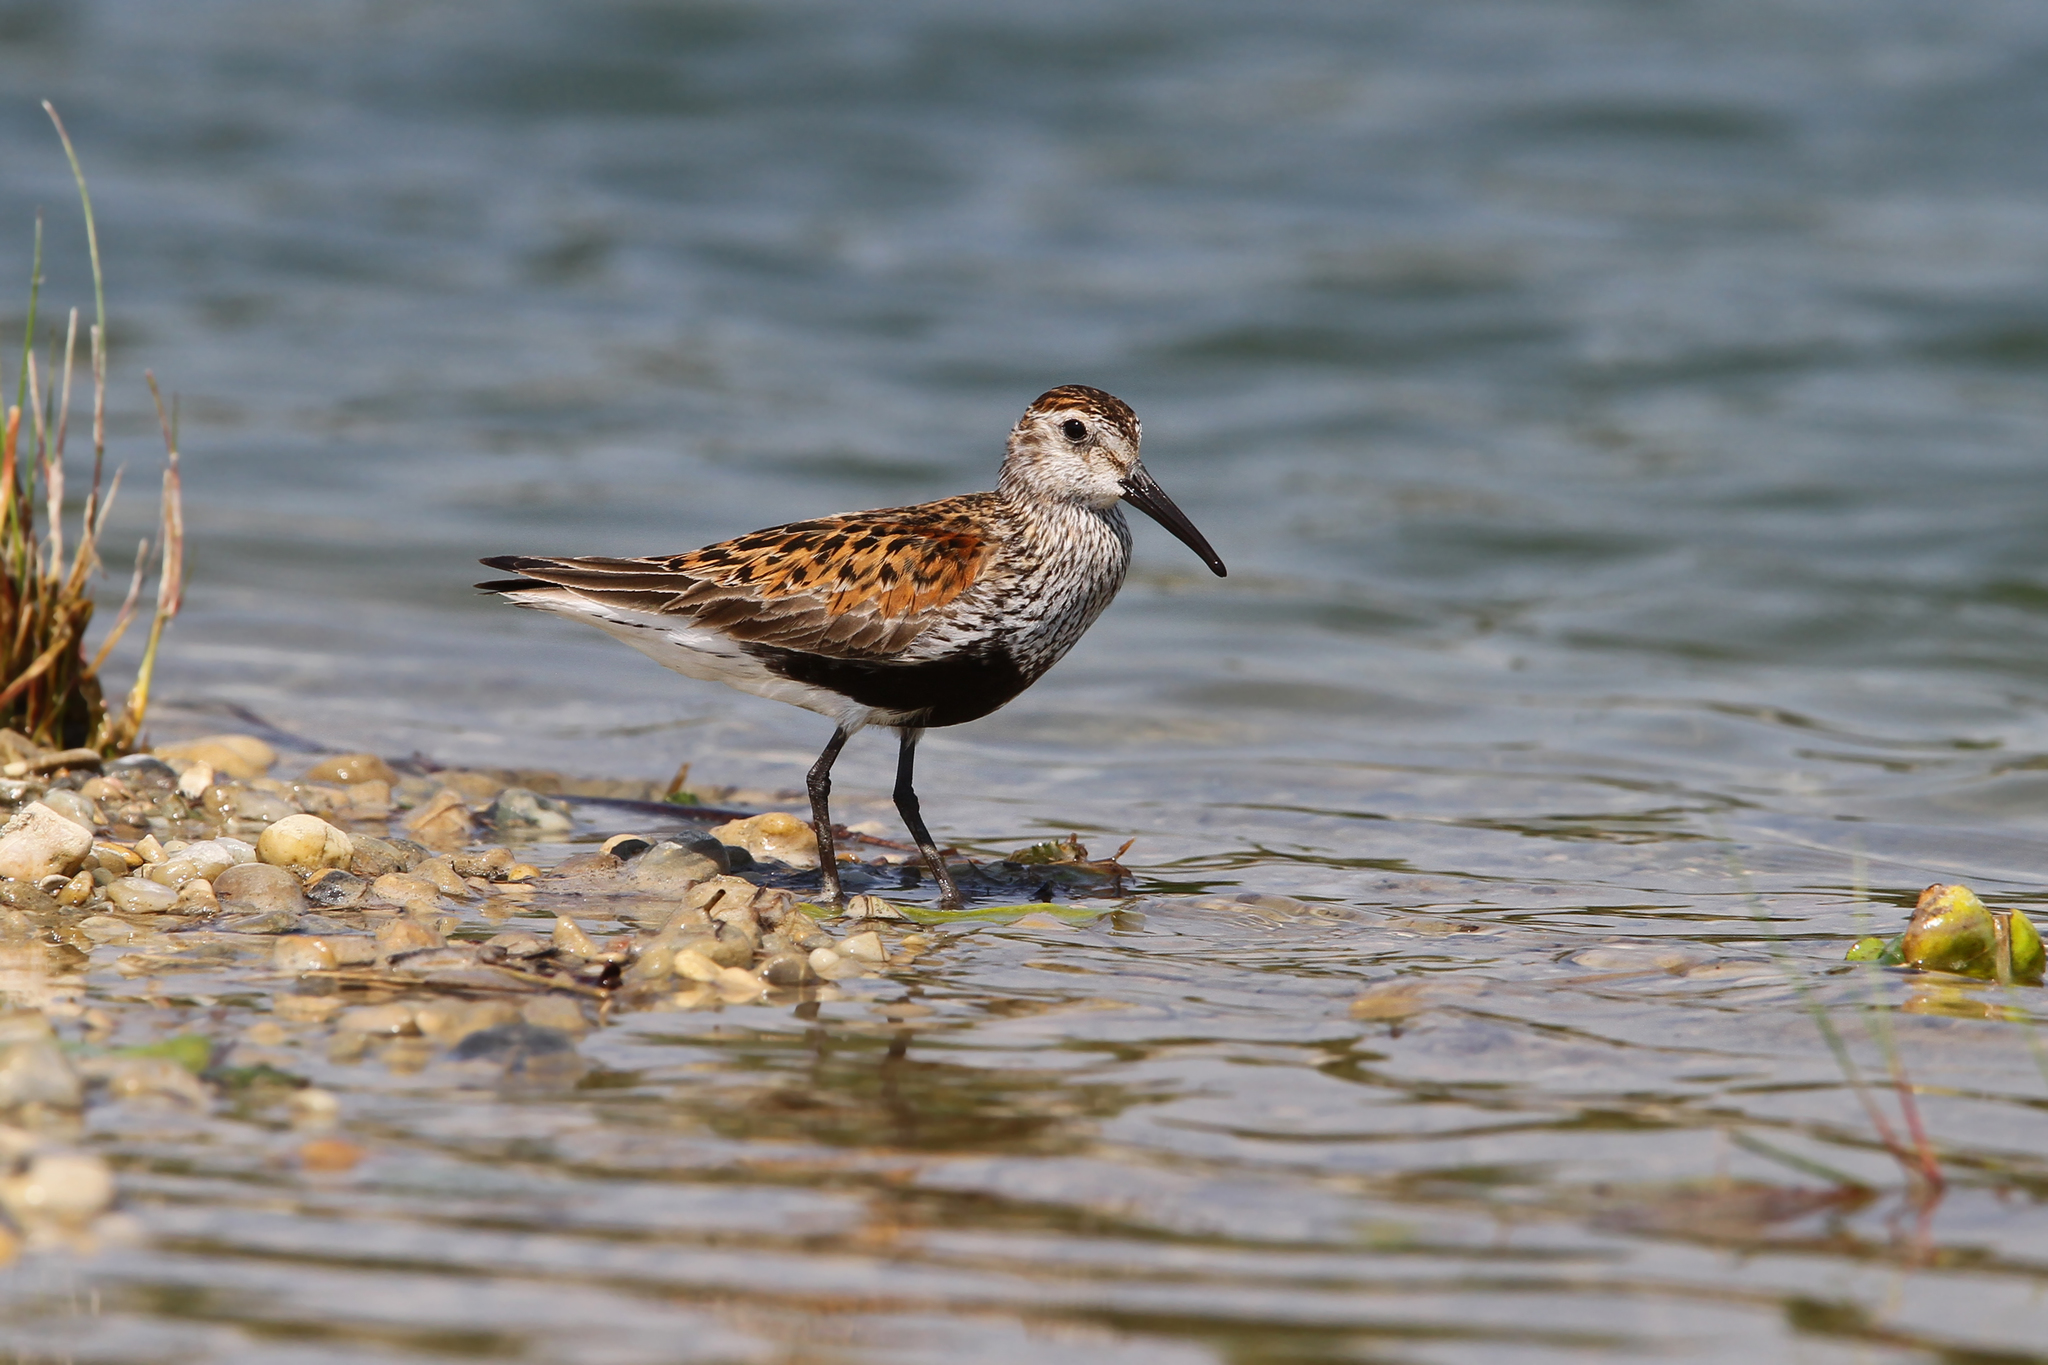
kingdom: Animalia
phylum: Chordata
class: Aves
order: Charadriiformes
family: Scolopacidae
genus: Calidris
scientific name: Calidris alpina
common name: Dunlin
